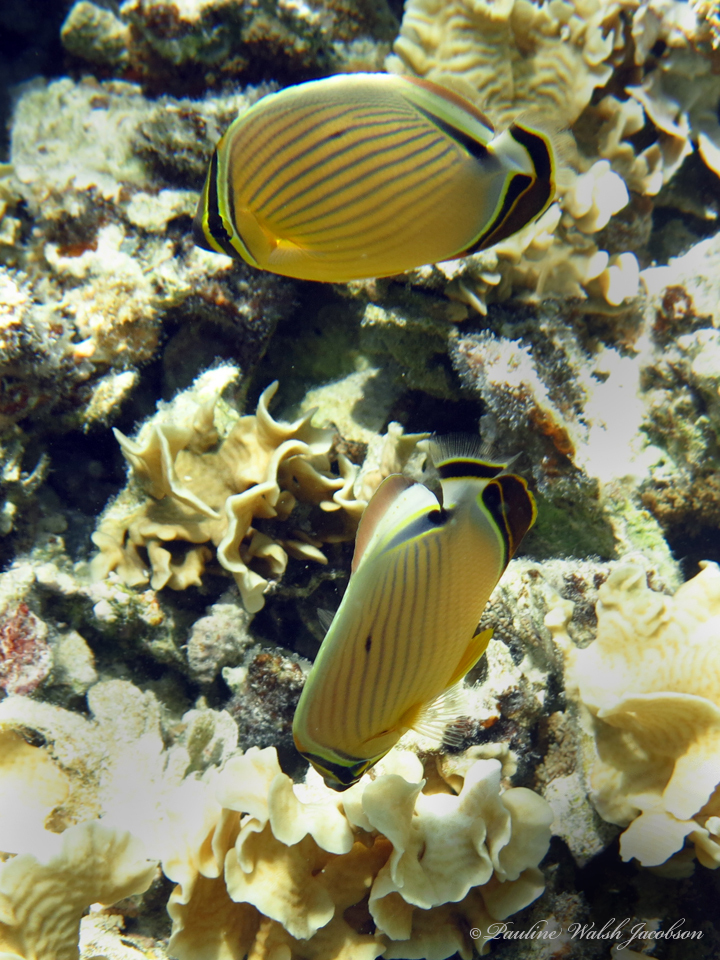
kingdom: Animalia
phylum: Chordata
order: Perciformes
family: Chaetodontidae
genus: Chaetodon
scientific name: Chaetodon lunulatus
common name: Redfin butterflyfish
